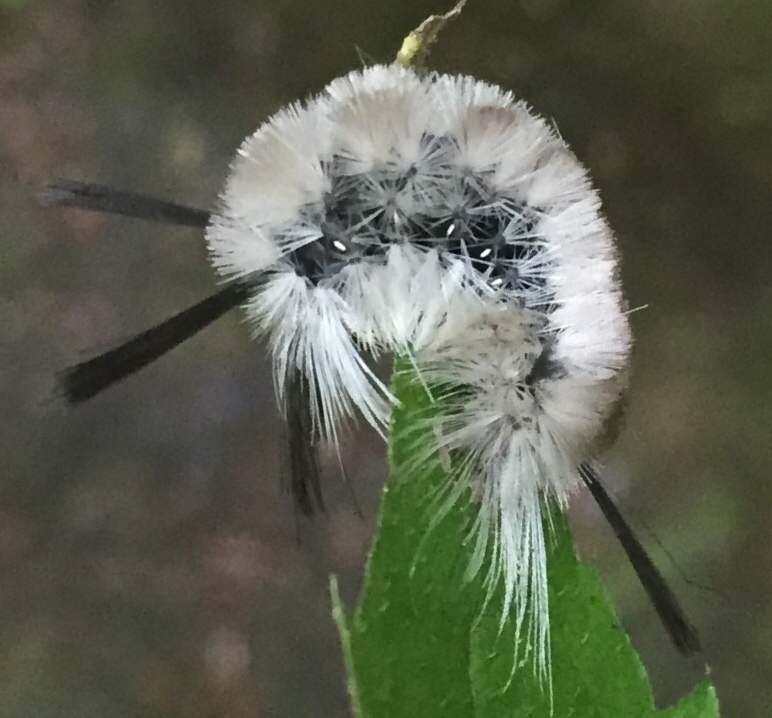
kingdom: Animalia
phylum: Arthropoda
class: Insecta
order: Lepidoptera
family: Erebidae
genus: Halysidota
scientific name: Halysidota tessellaris
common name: Banded tussock moth
